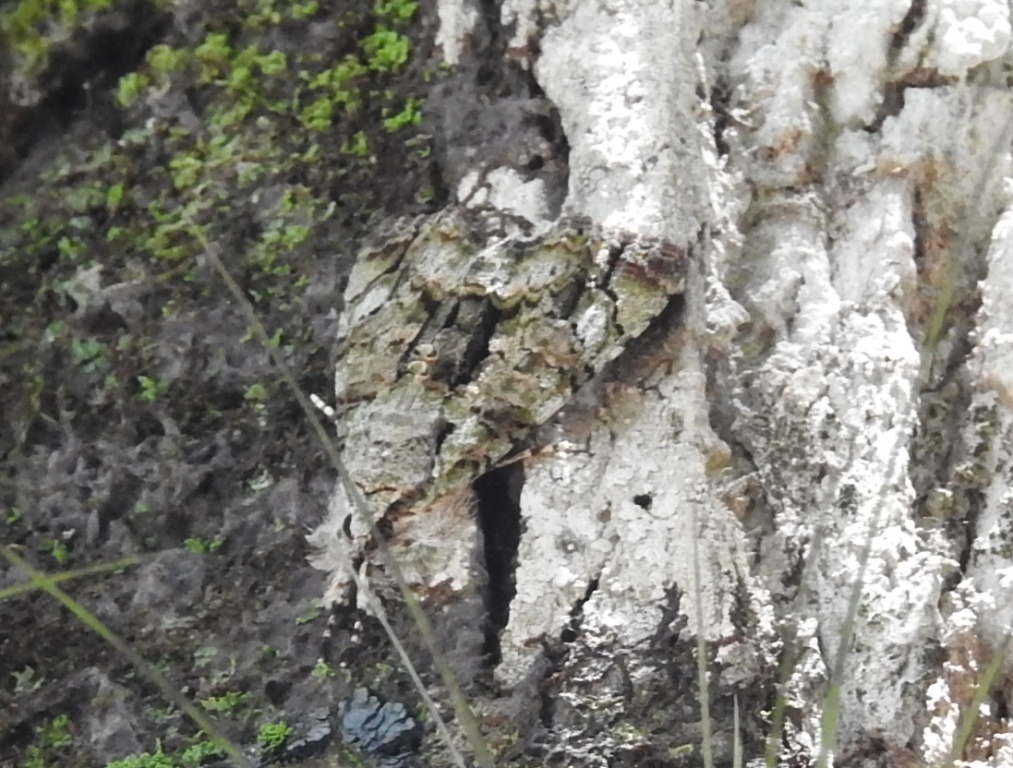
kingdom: Animalia
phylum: Arthropoda
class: Insecta
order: Lepidoptera
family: Noctuidae
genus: Neophaenis
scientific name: Neophaenis boucheri
